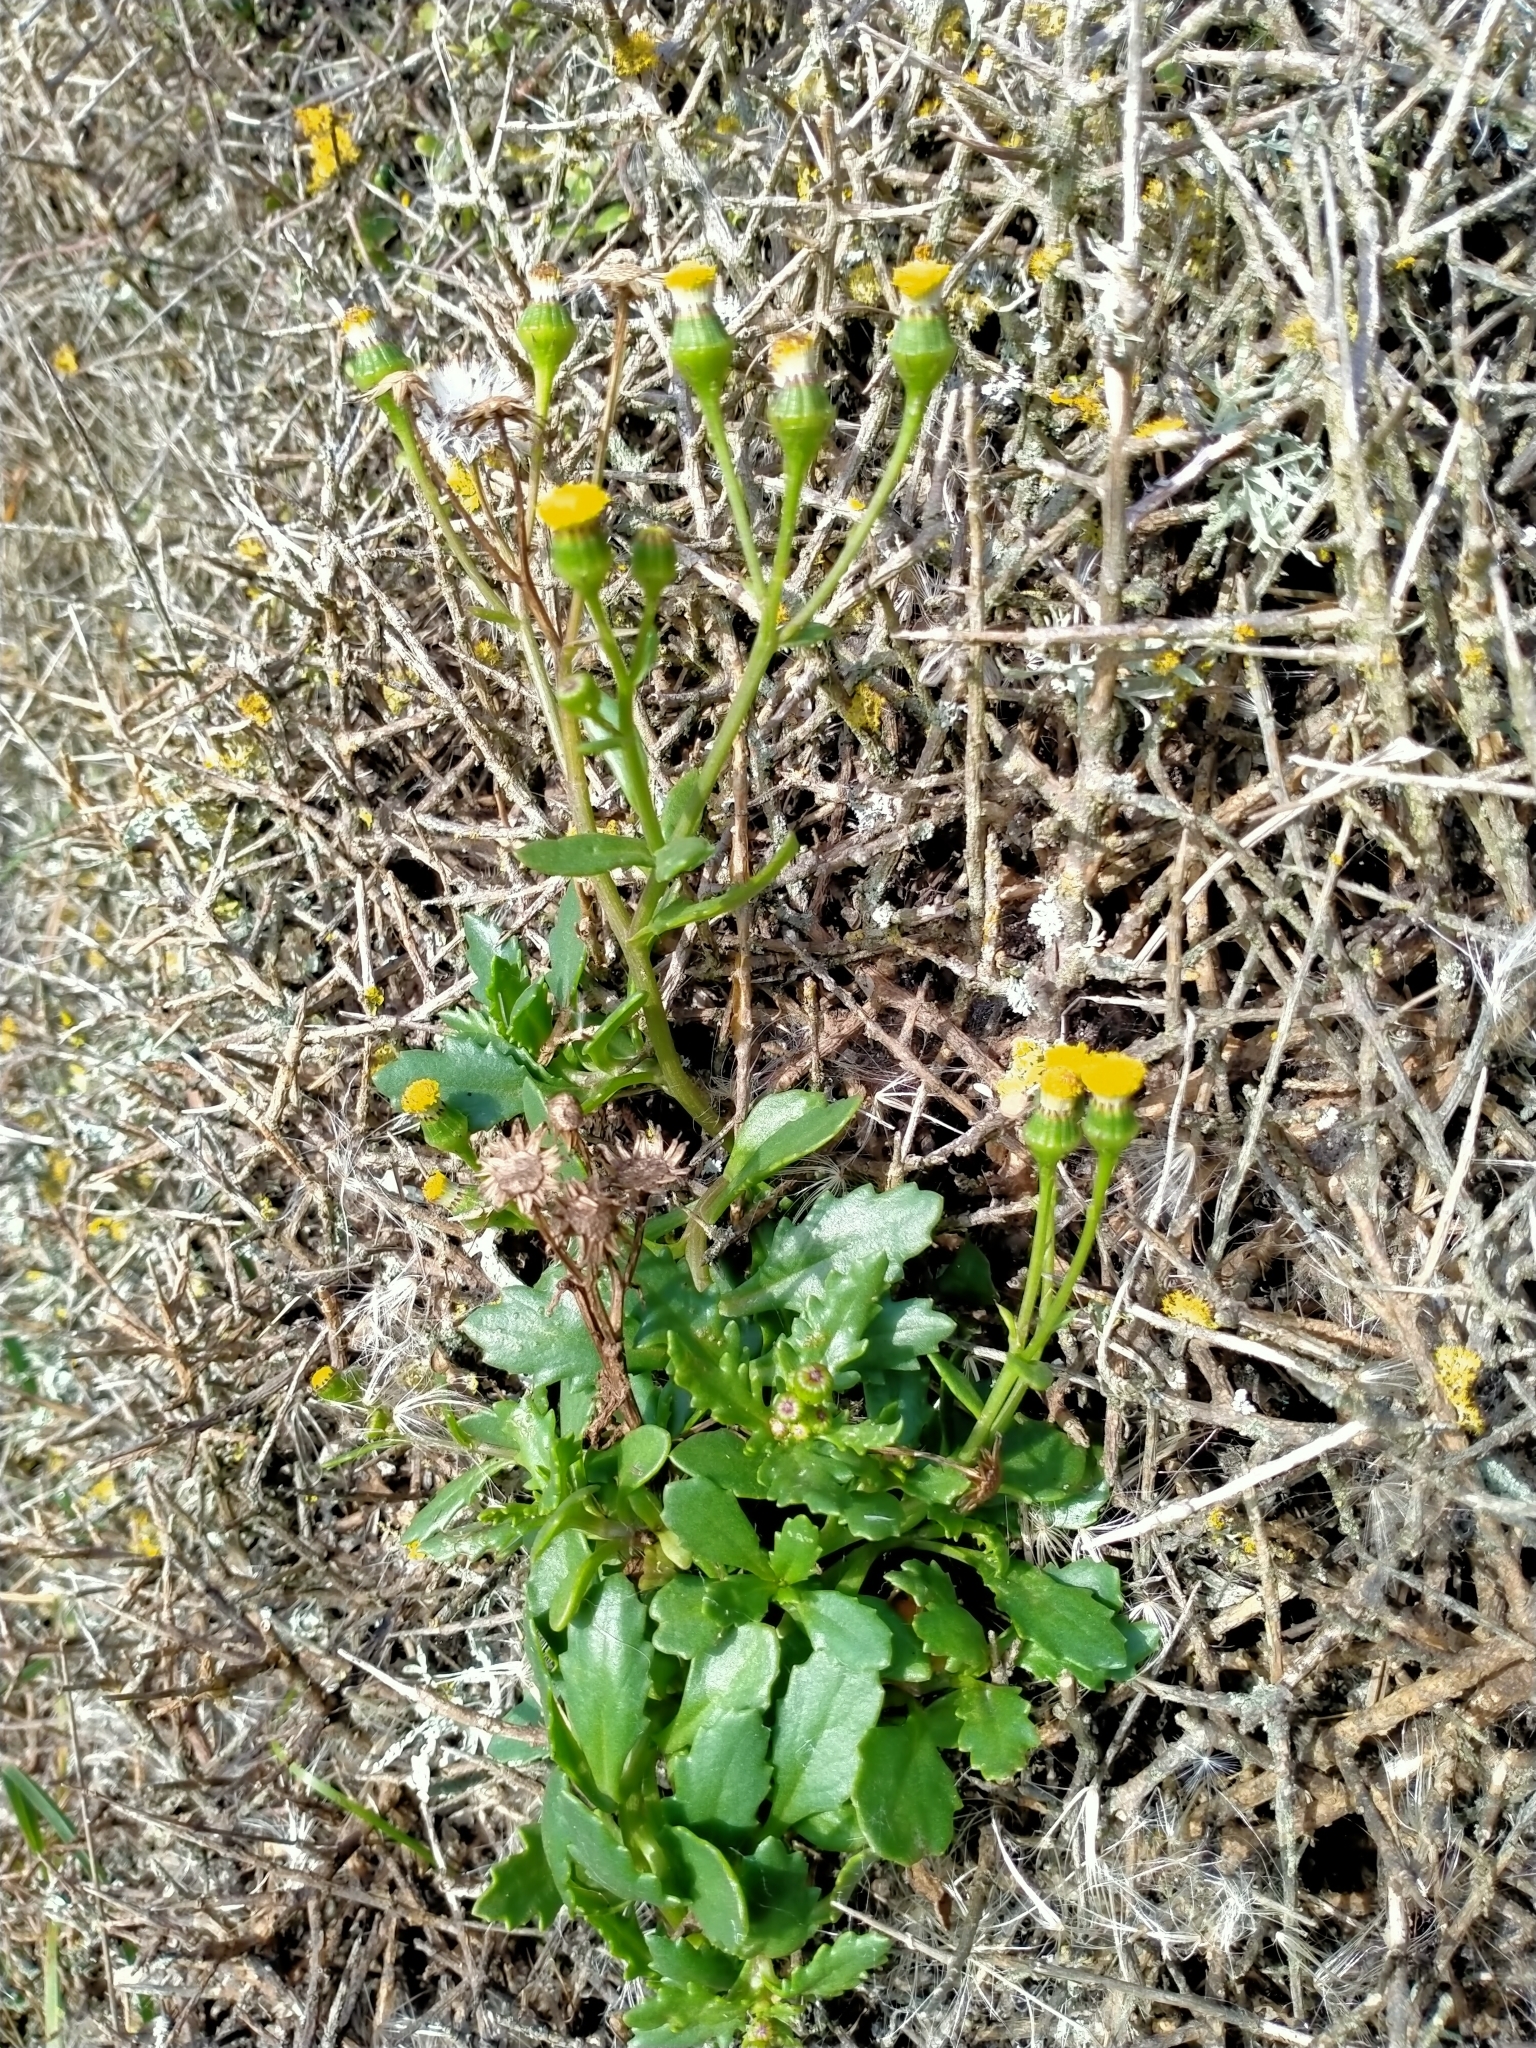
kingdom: Plantae
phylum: Tracheophyta
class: Magnoliopsida
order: Asterales
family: Asteraceae
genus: Senecio
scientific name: Senecio matatini
